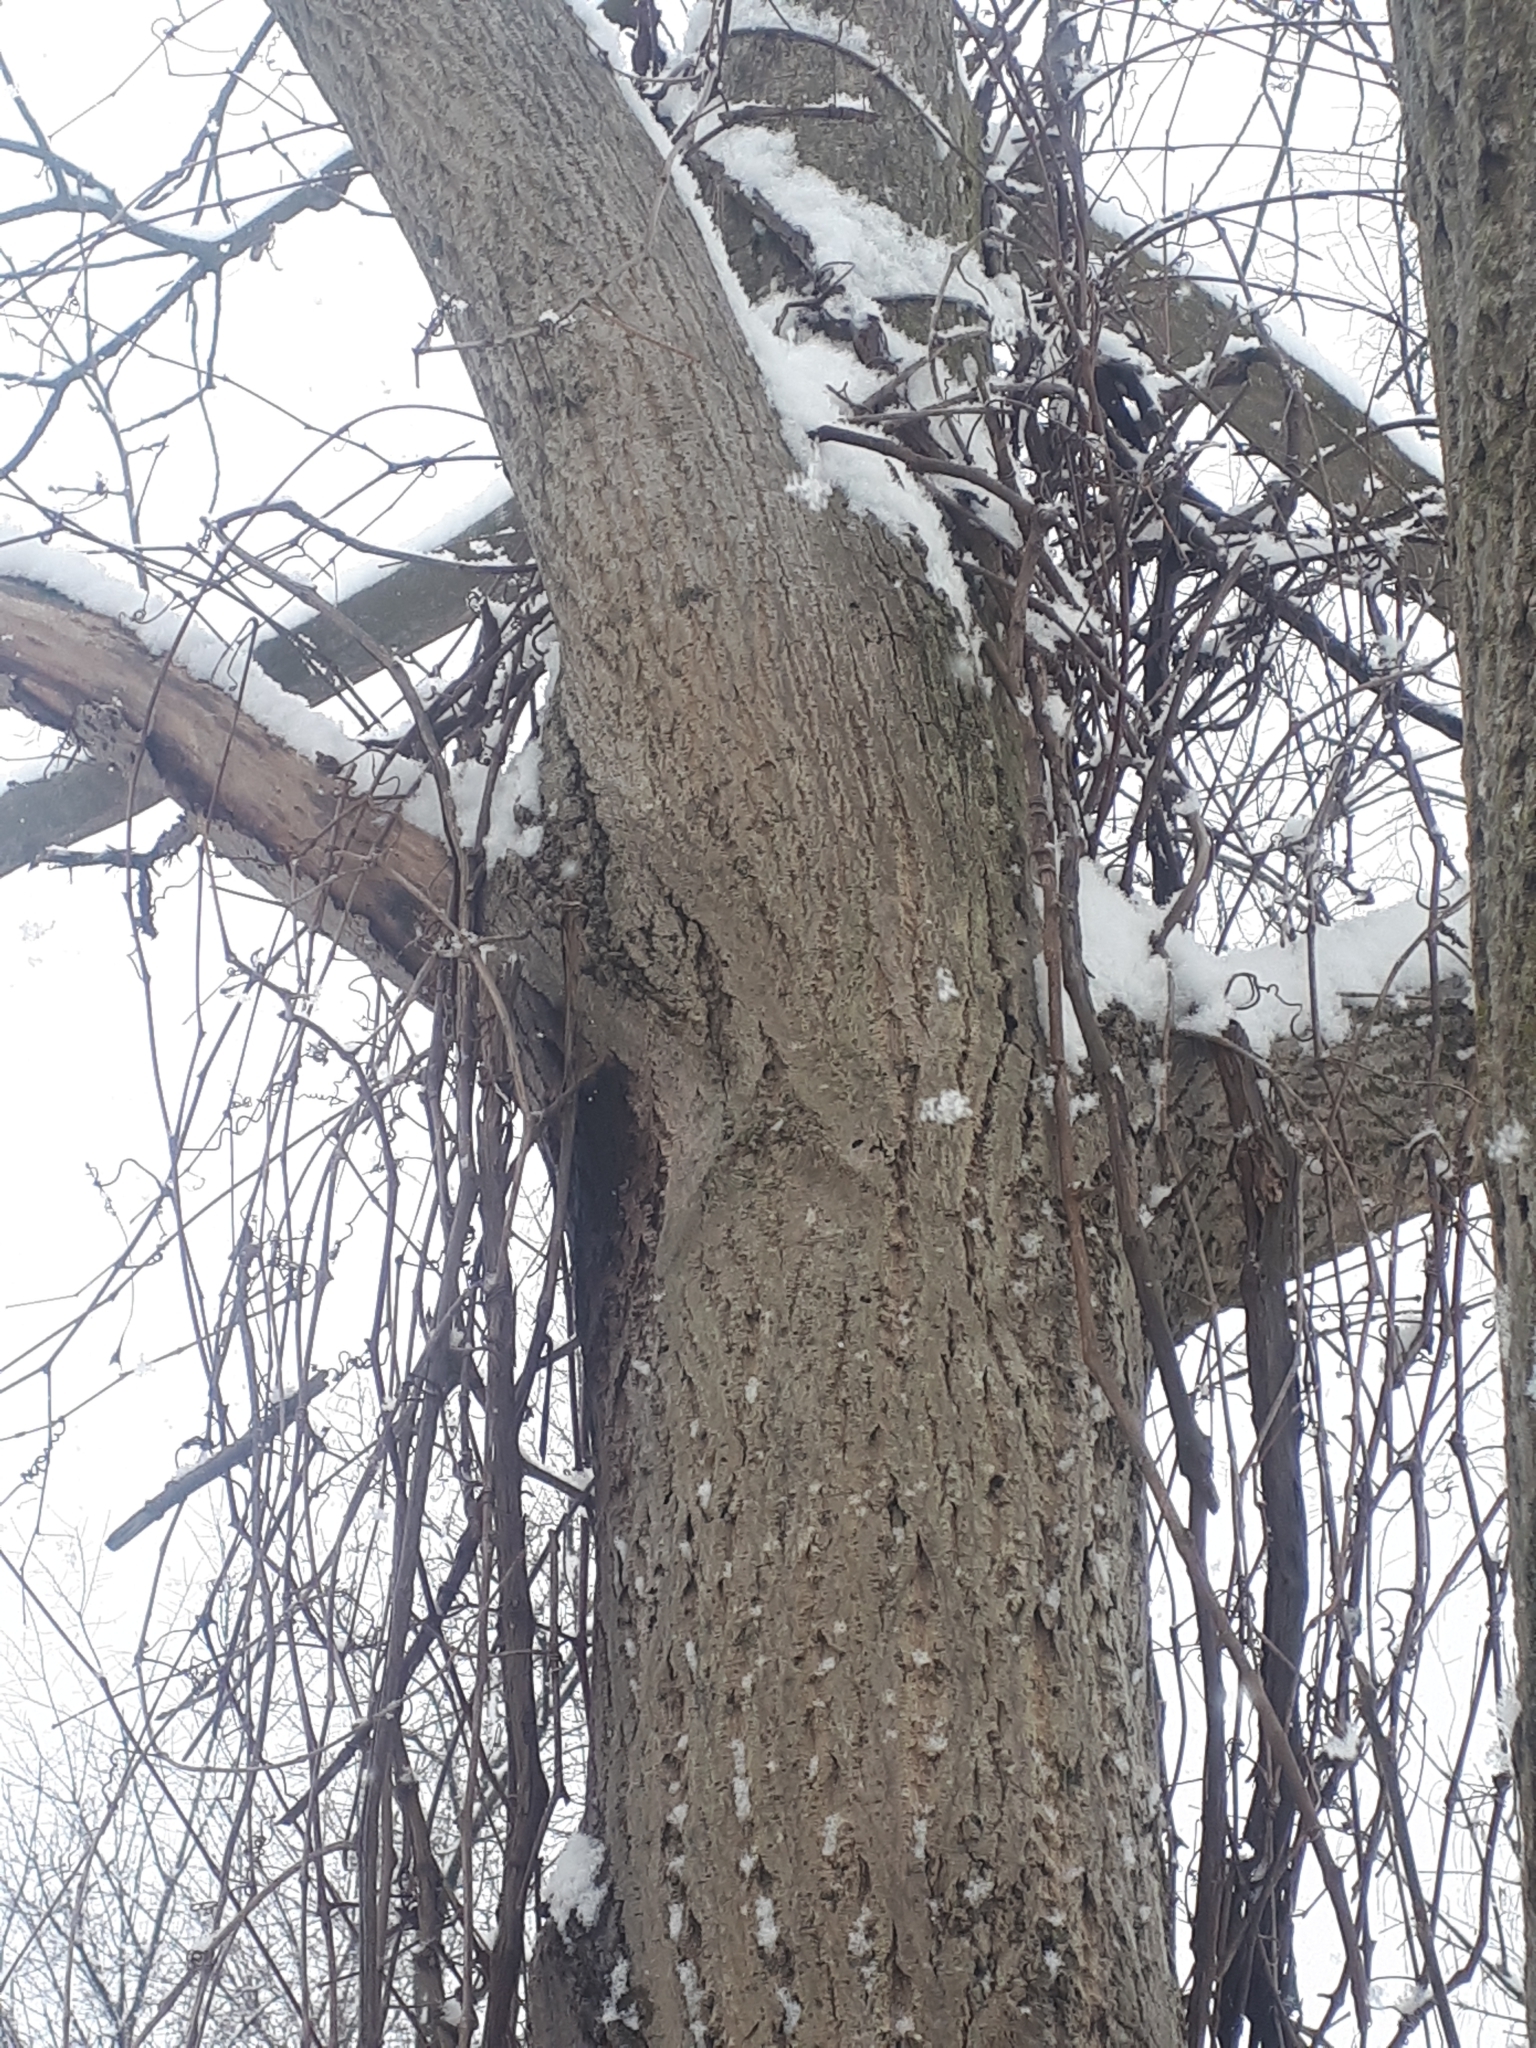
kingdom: Plantae
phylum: Tracheophyta
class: Magnoliopsida
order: Fagales
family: Juglandaceae
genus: Juglans
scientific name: Juglans cinerea
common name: Butternut
